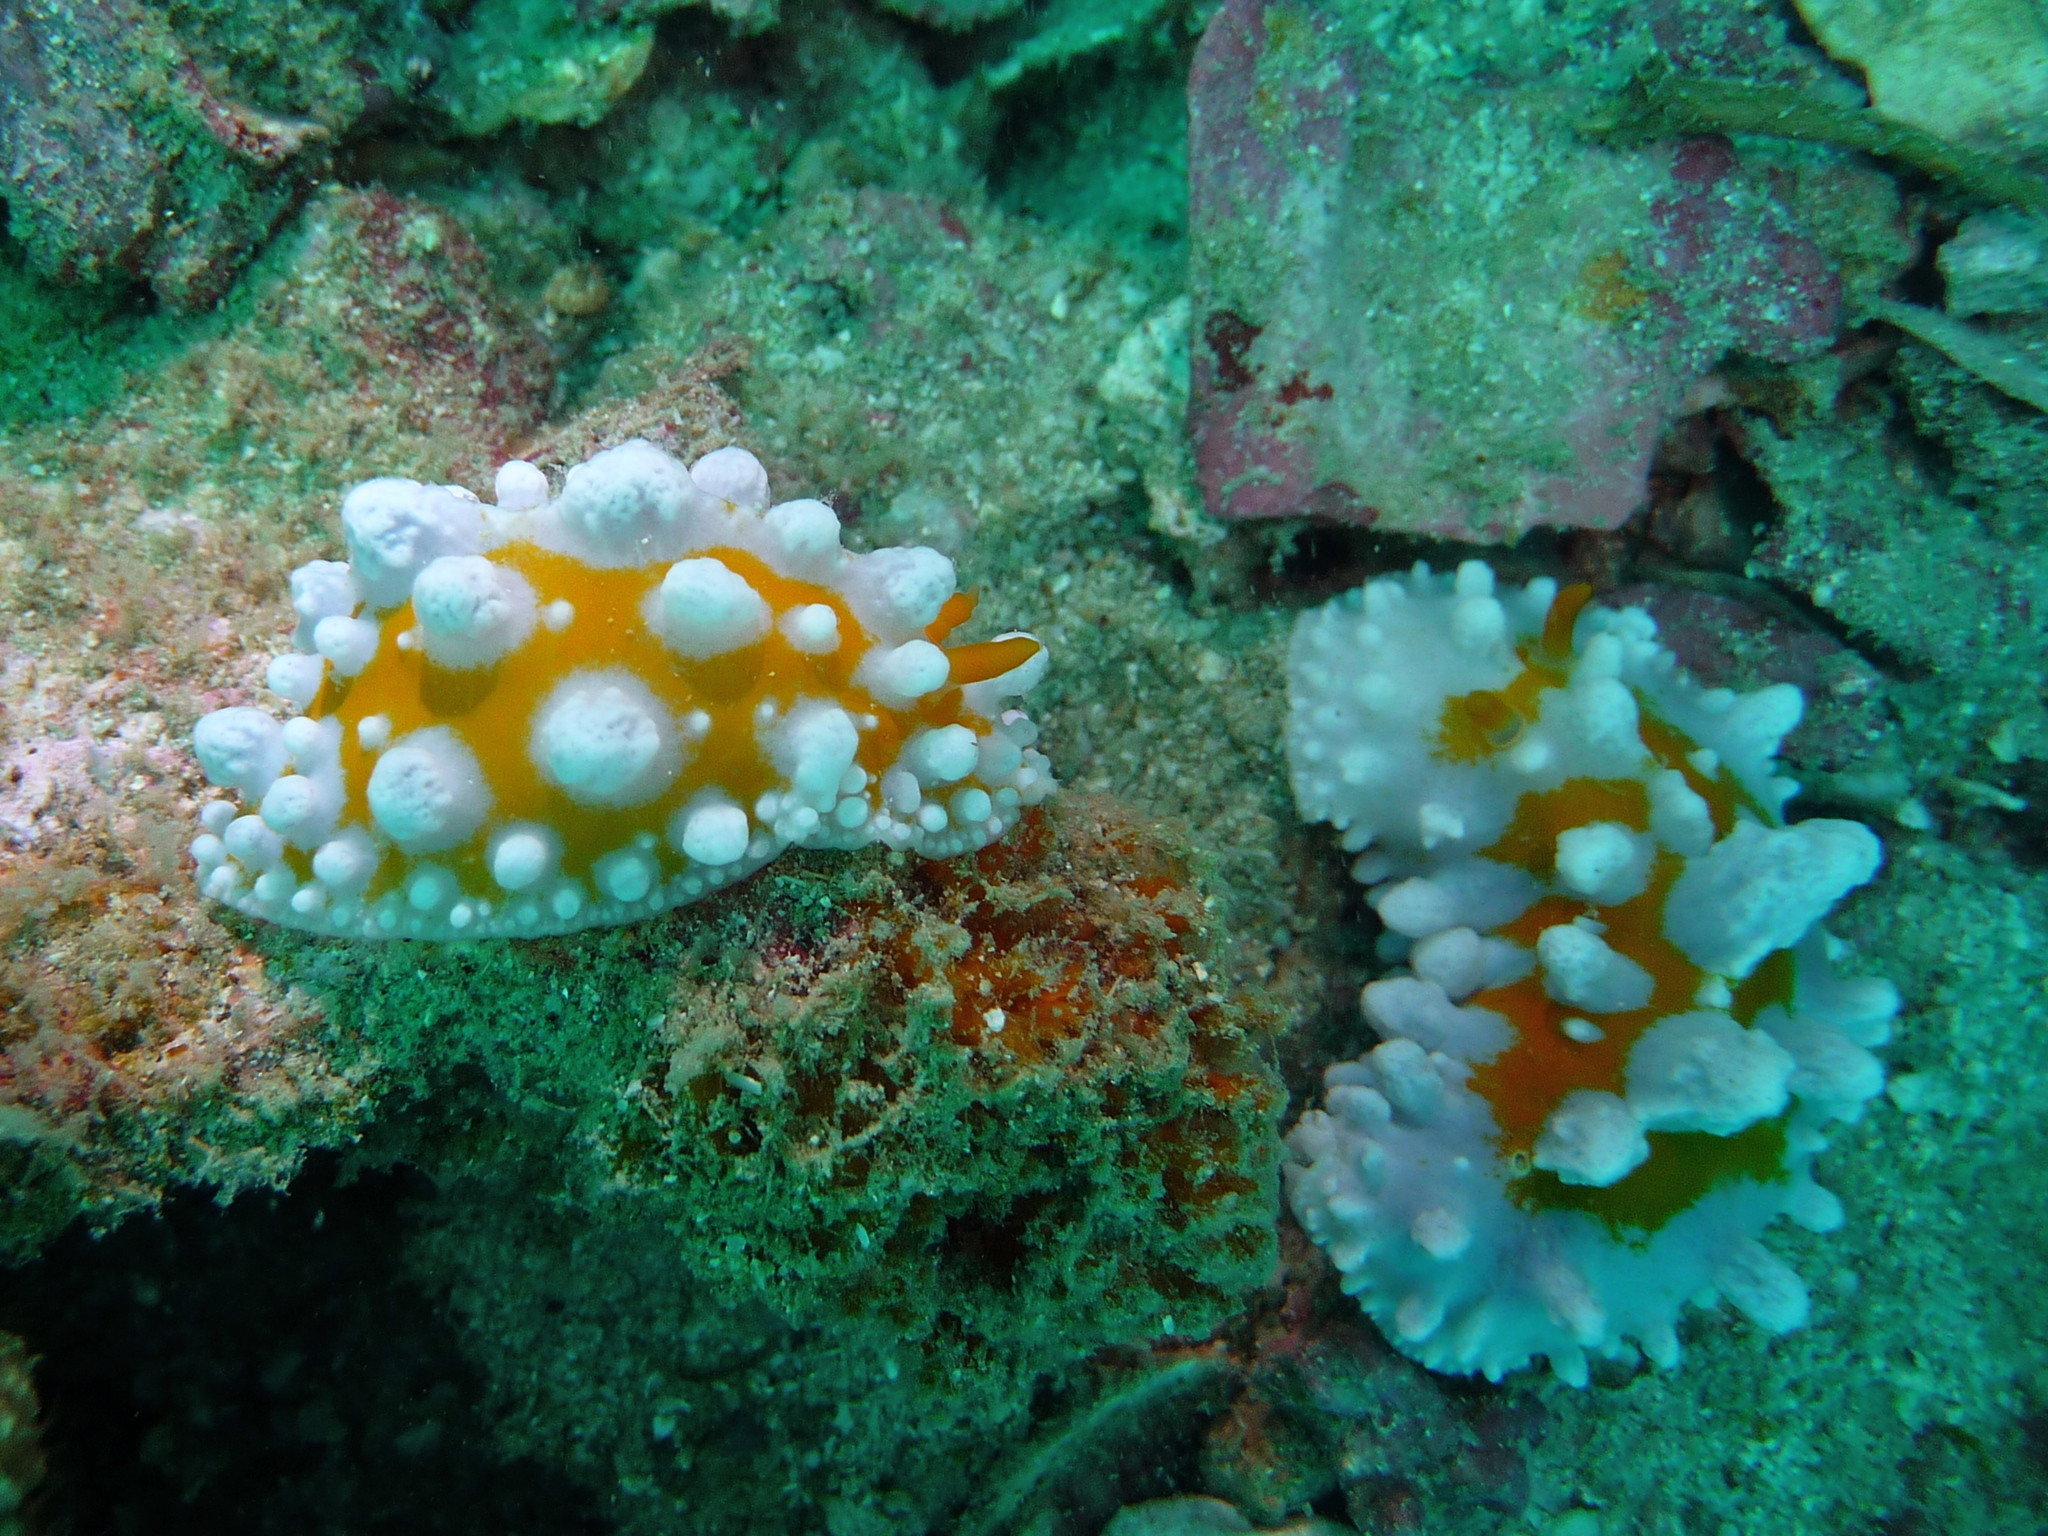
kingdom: Animalia
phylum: Mollusca
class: Gastropoda
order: Nudibranchia
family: Phyllidiidae
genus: Phyllidia
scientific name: Phyllidia ocellata
